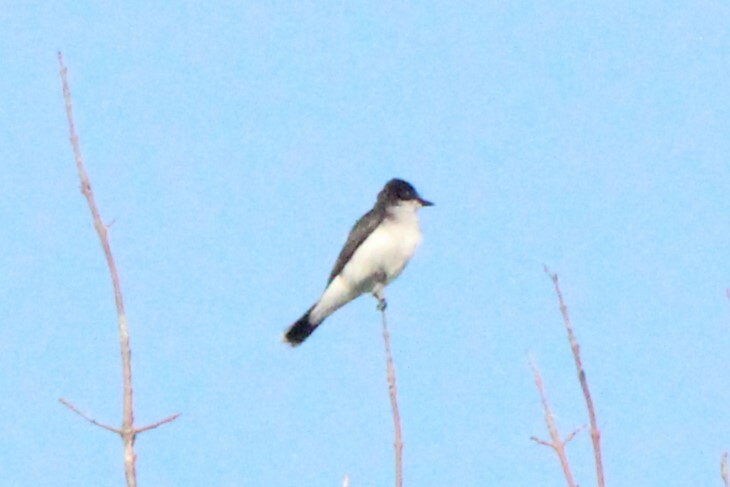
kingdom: Animalia
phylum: Chordata
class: Aves
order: Passeriformes
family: Tyrannidae
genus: Tyrannus
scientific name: Tyrannus tyrannus
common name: Eastern kingbird
